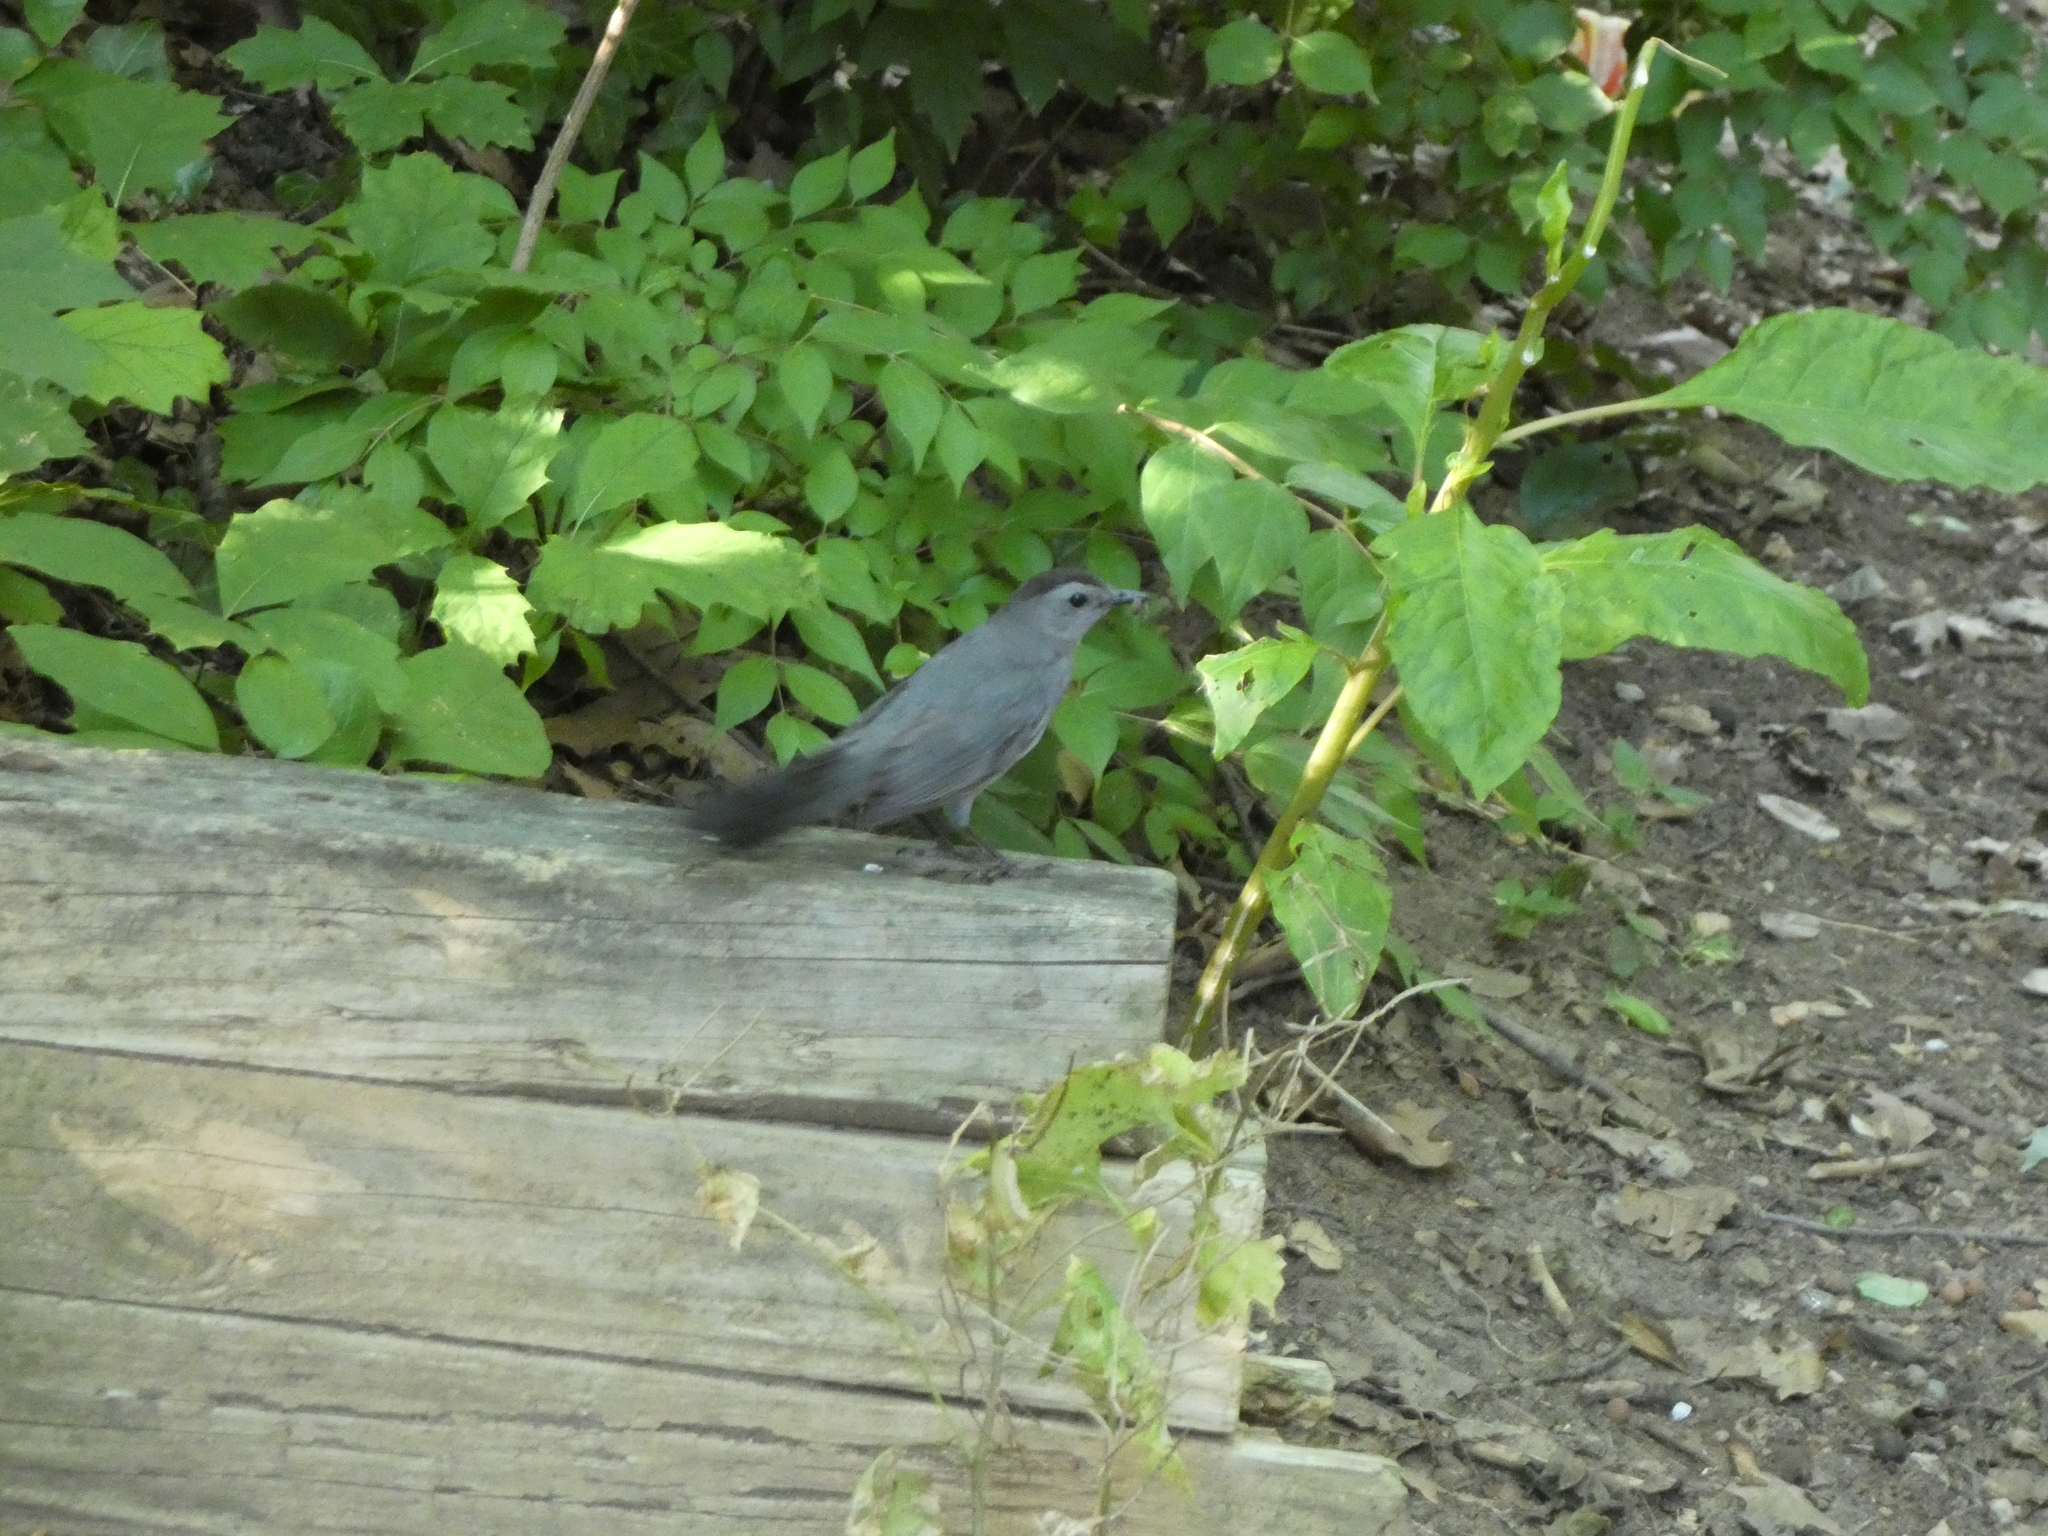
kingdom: Animalia
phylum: Chordata
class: Aves
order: Passeriformes
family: Mimidae
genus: Dumetella
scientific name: Dumetella carolinensis
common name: Gray catbird
